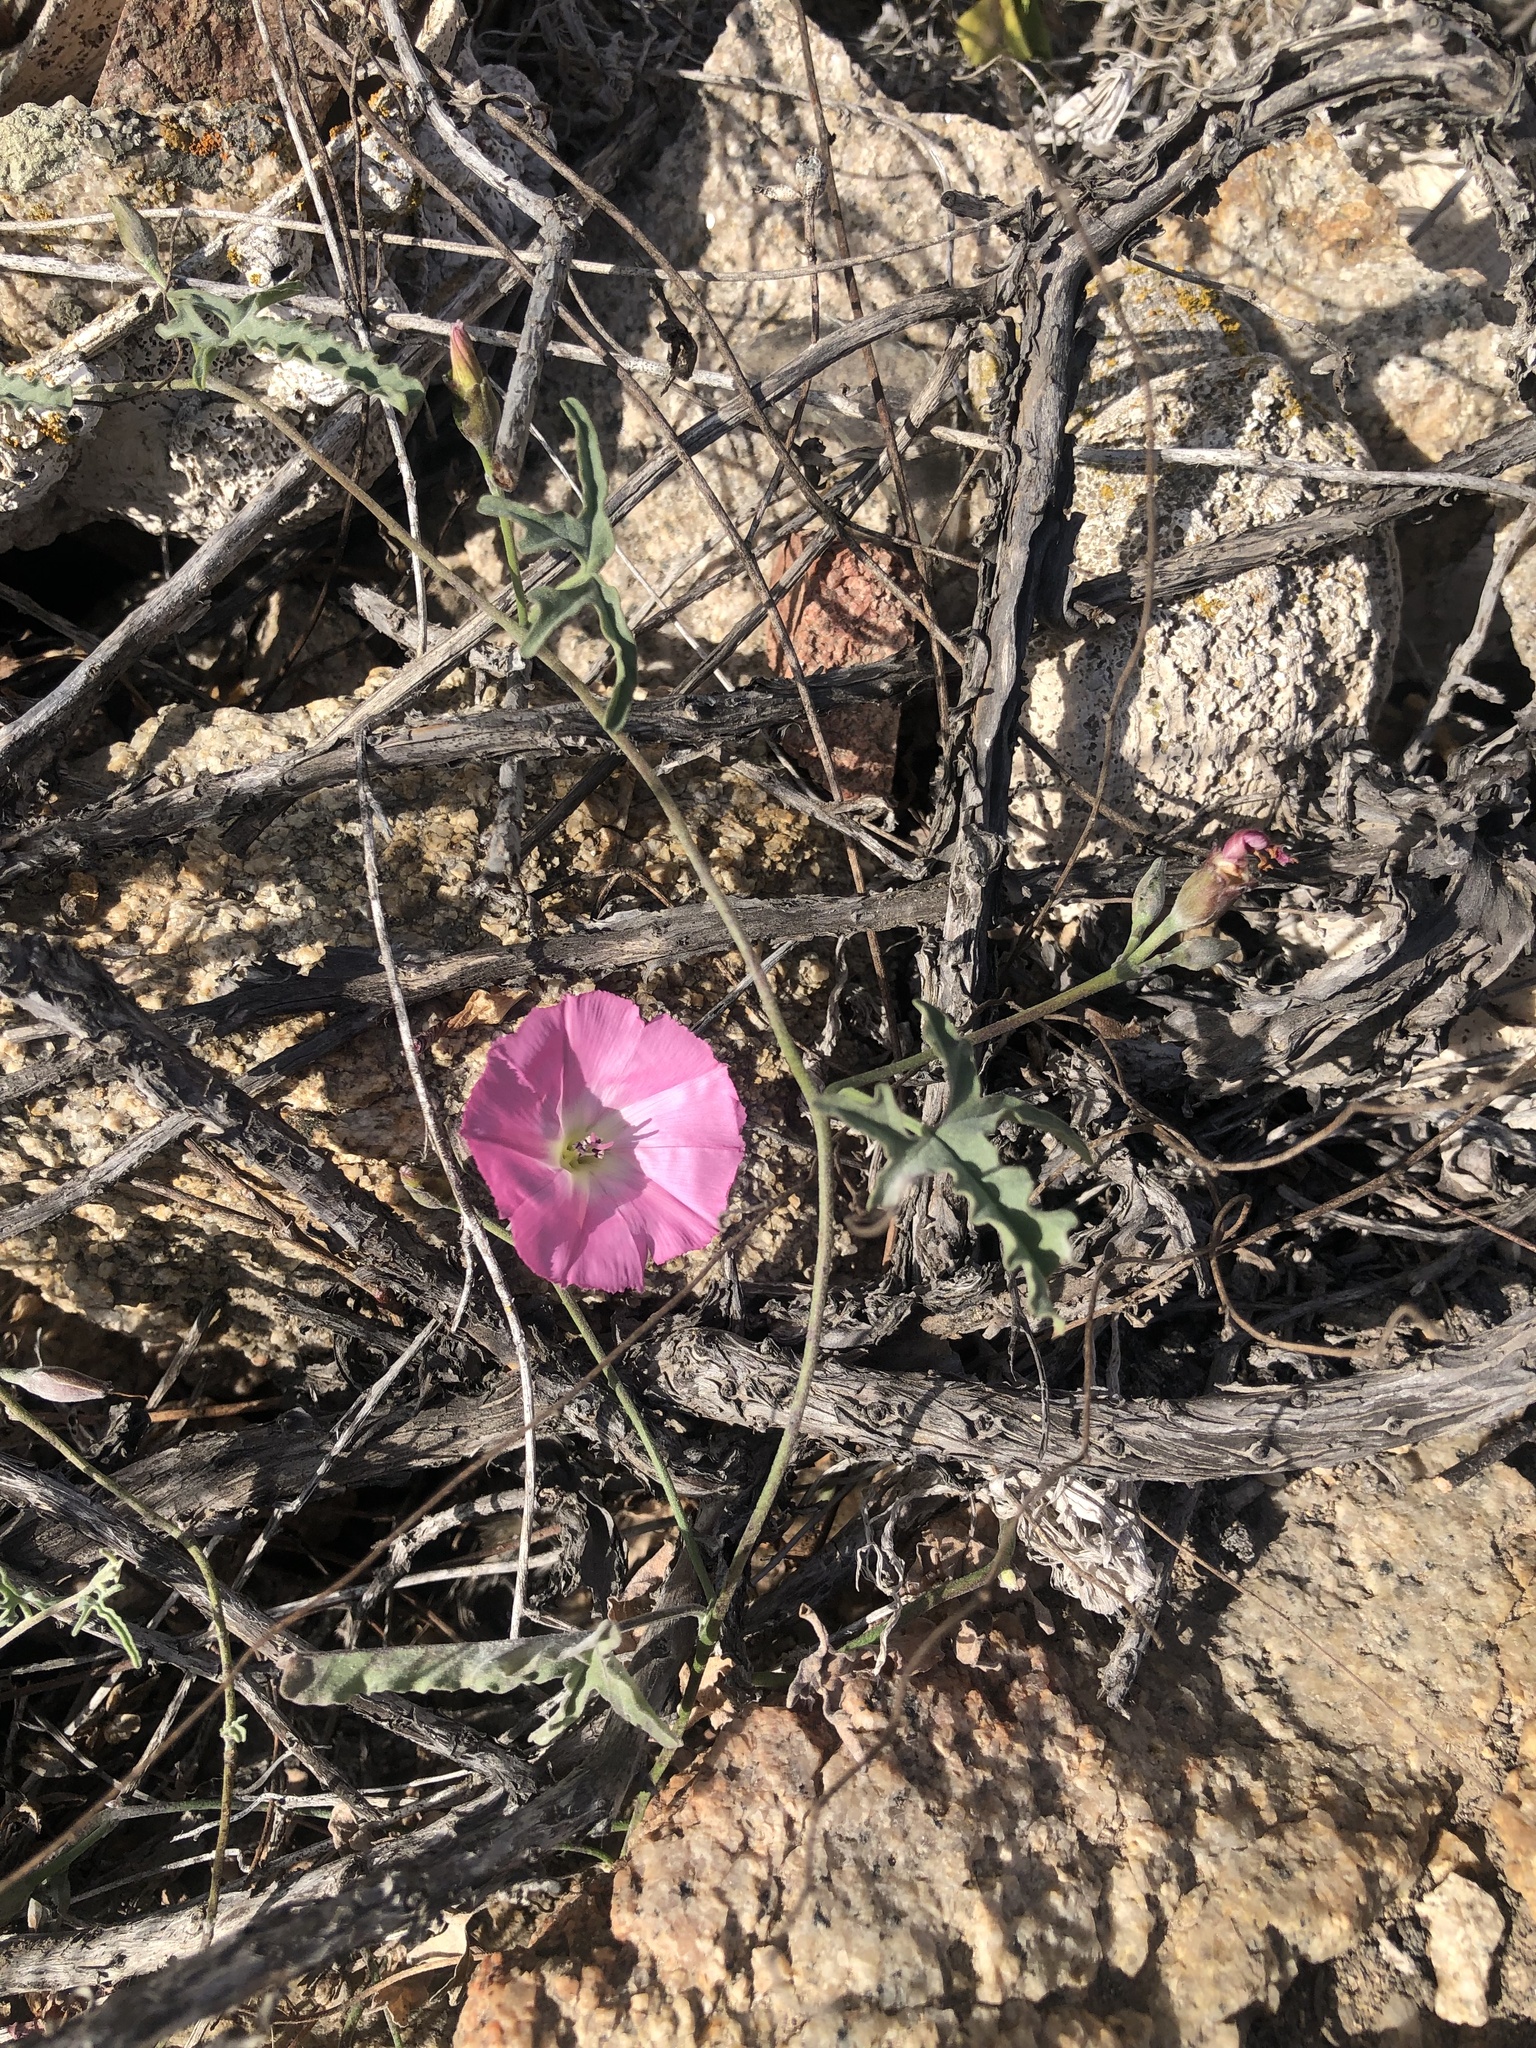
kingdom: Plantae
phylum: Tracheophyta
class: Magnoliopsida
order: Solanales
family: Convolvulaceae
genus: Convolvulus
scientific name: Convolvulus chilensis
